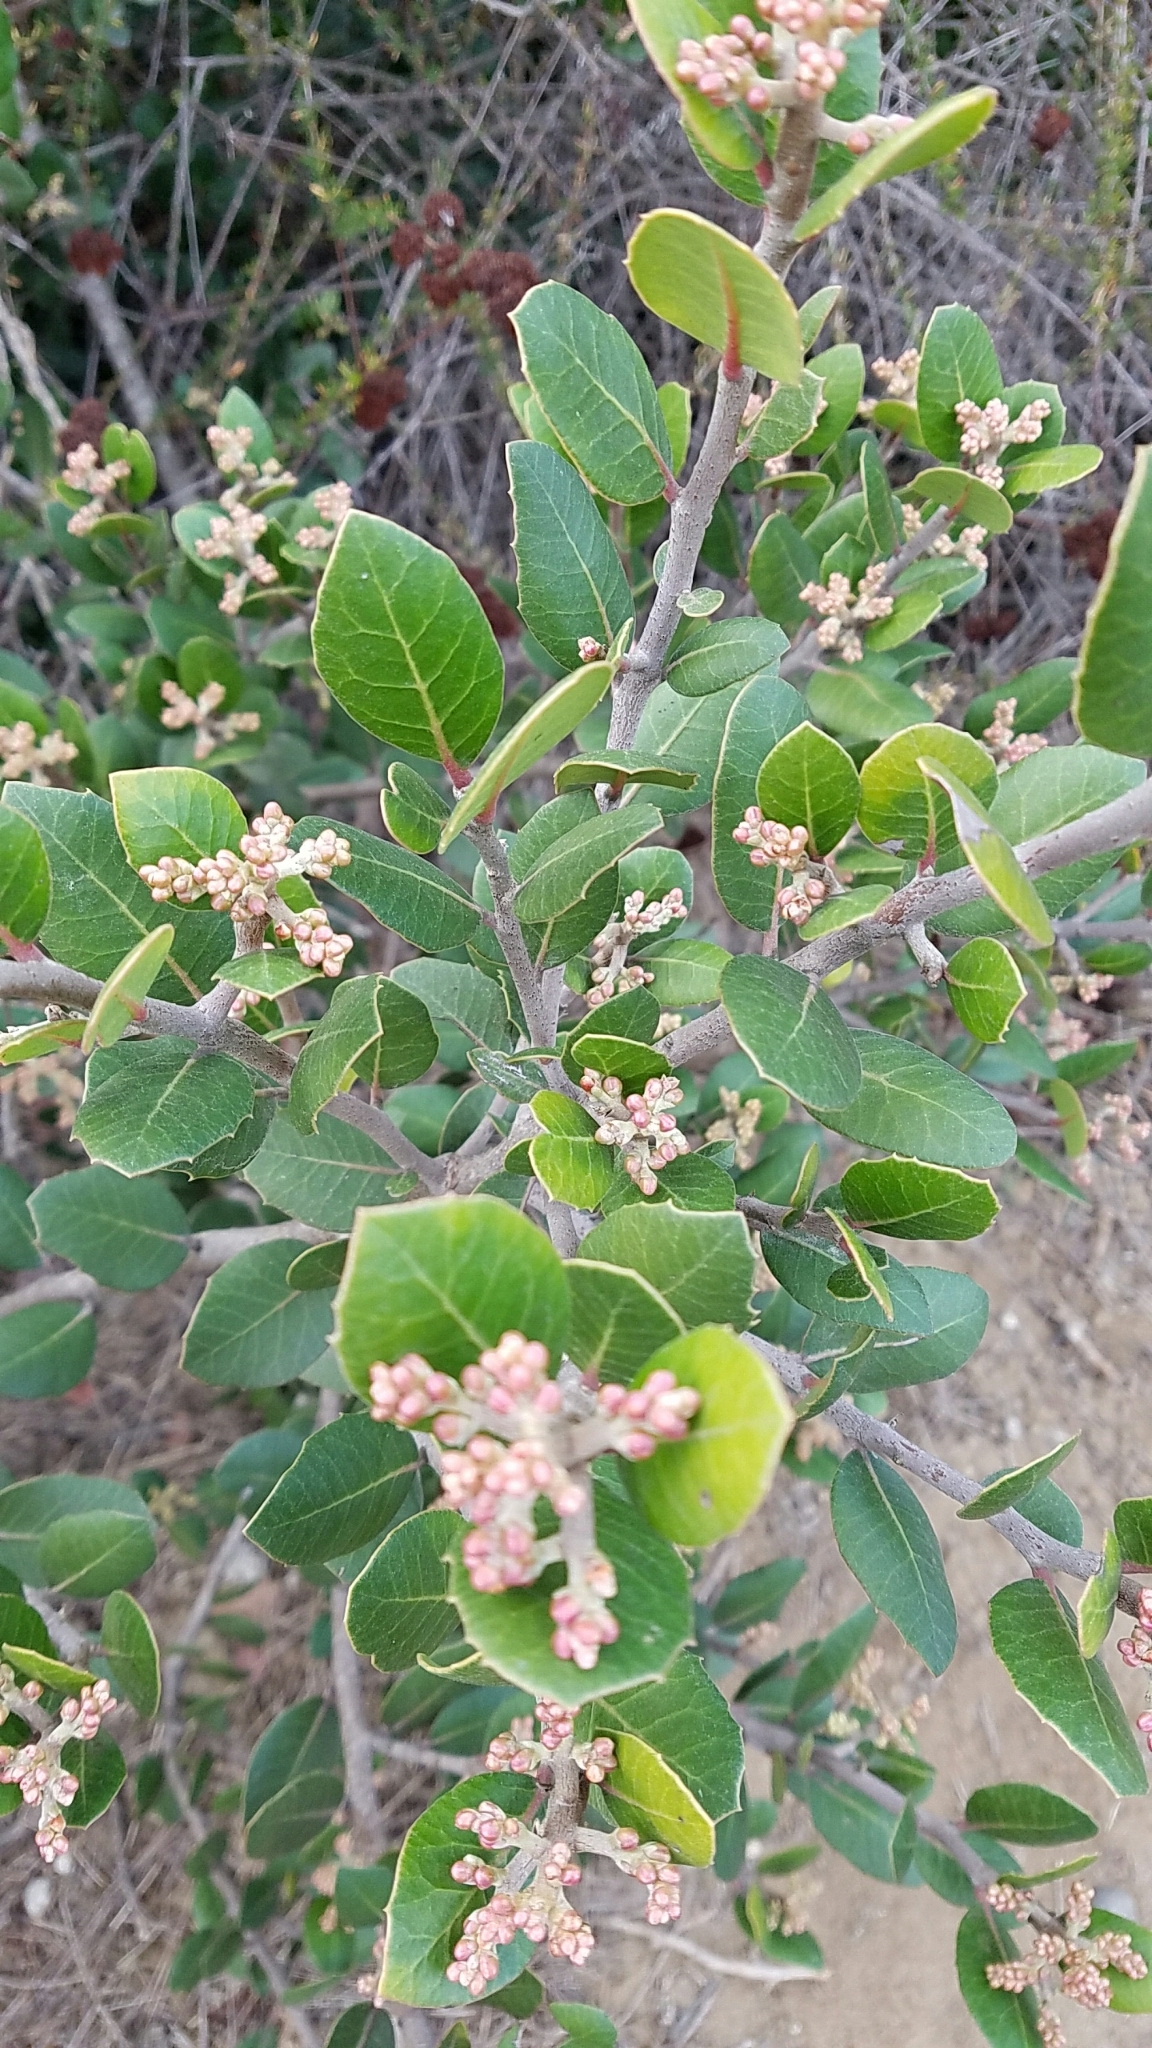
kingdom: Plantae
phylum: Tracheophyta
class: Magnoliopsida
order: Sapindales
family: Anacardiaceae
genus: Rhus
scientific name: Rhus integrifolia
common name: Lemonade sumac
